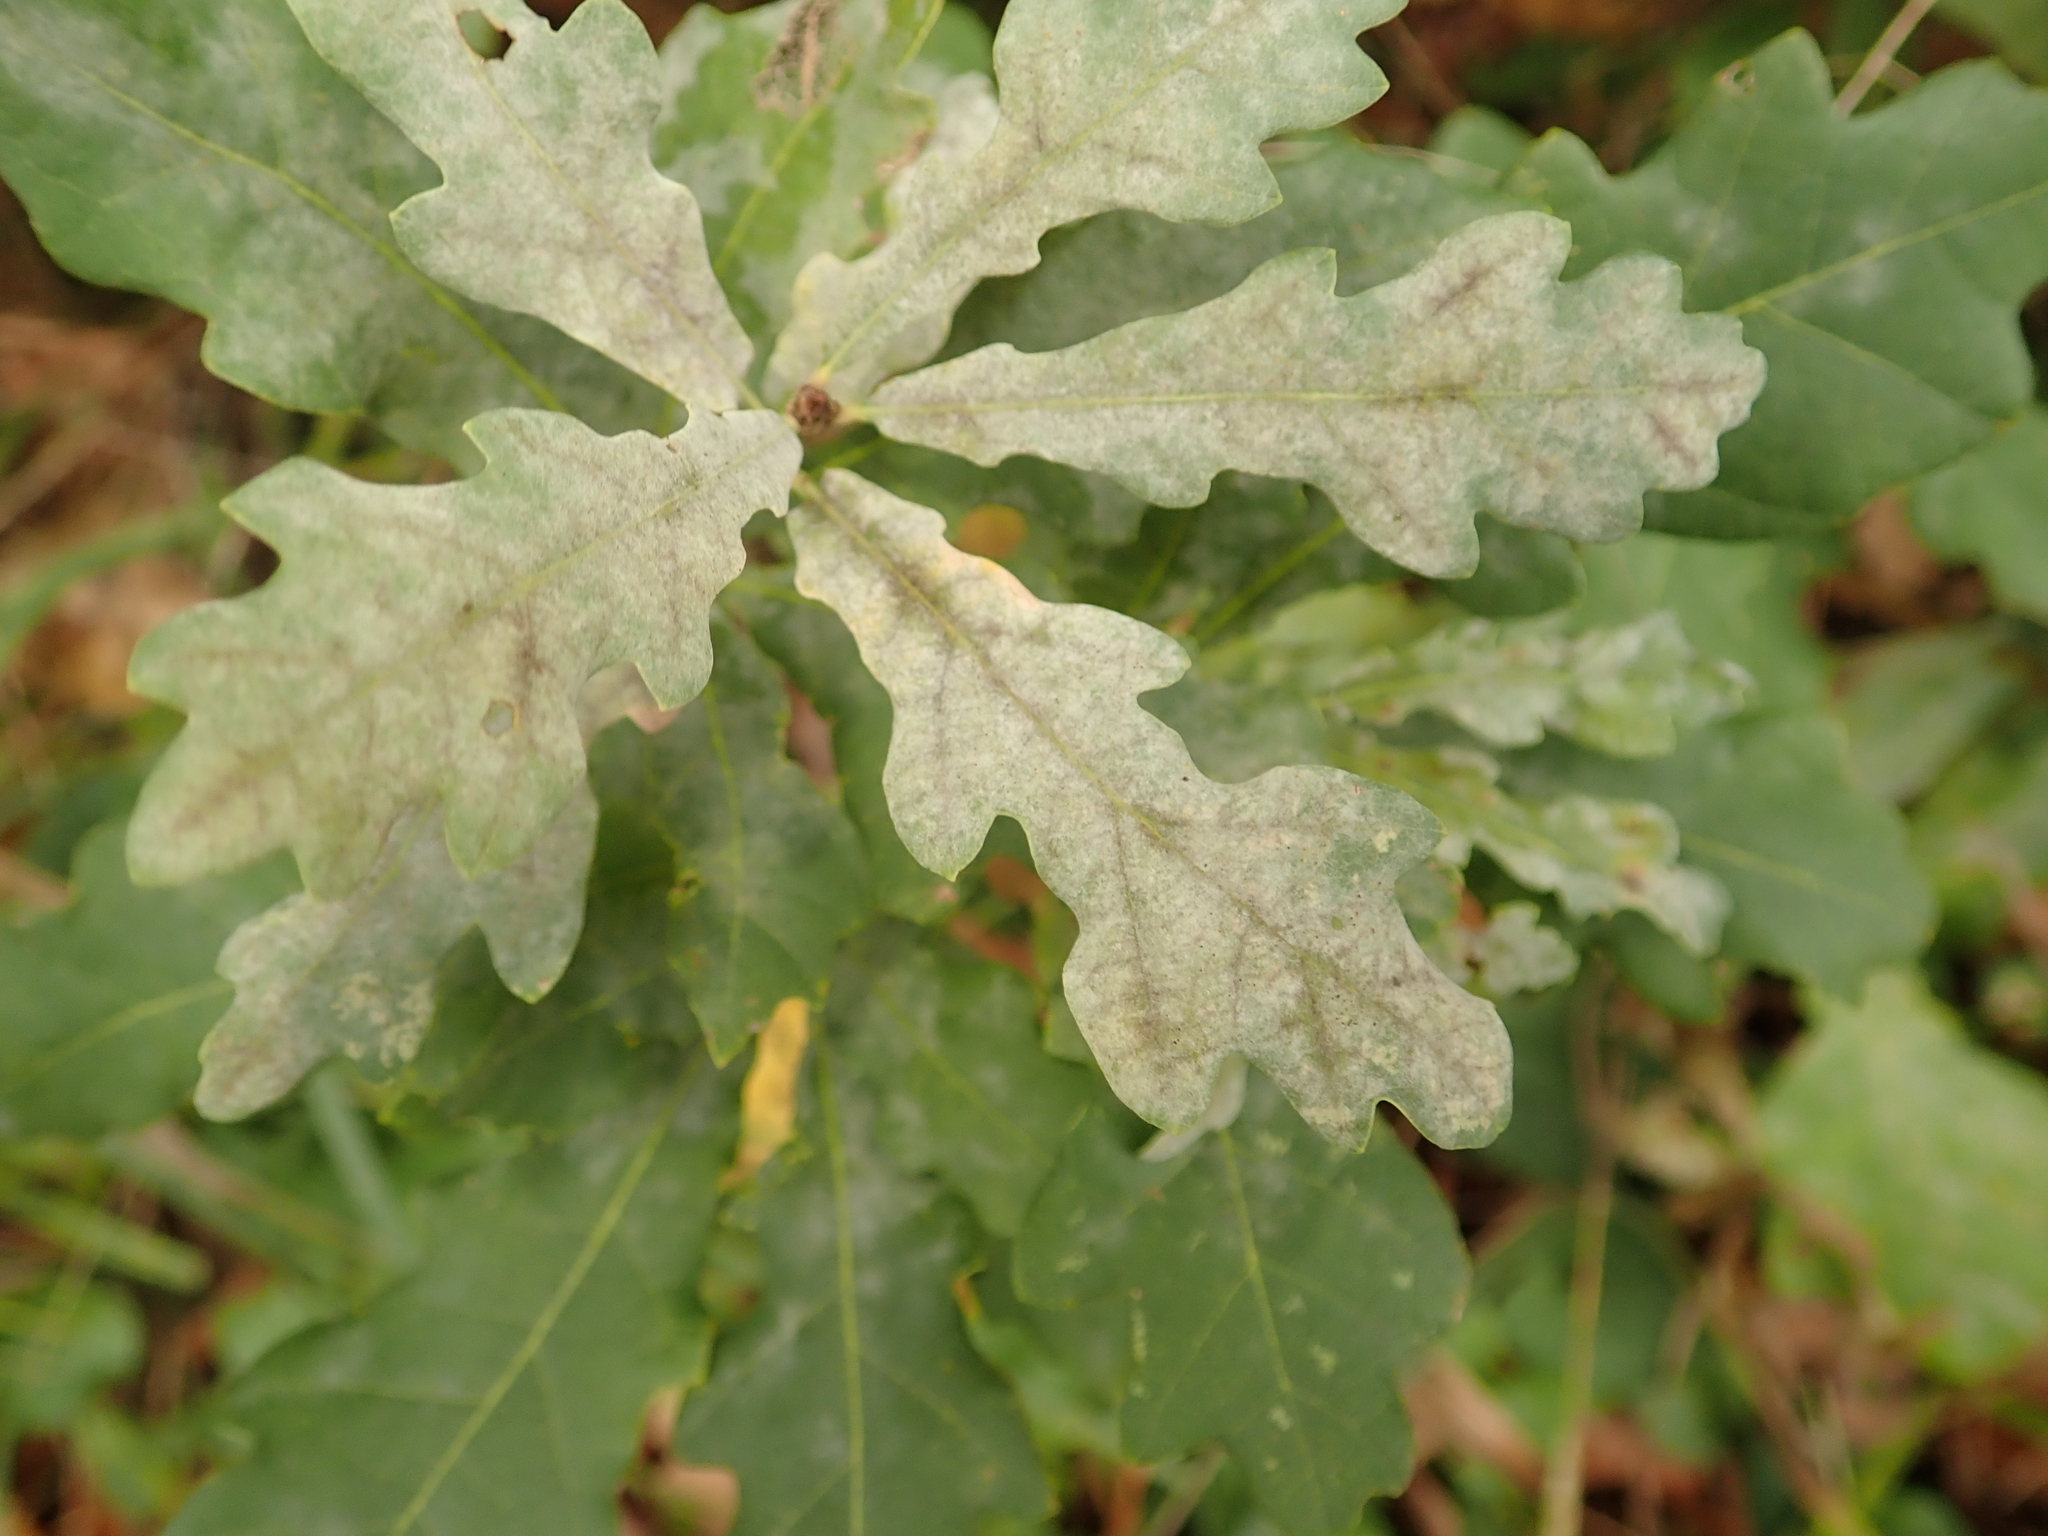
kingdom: Fungi
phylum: Ascomycota
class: Leotiomycetes
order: Helotiales
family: Erysiphaceae
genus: Erysiphe
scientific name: Erysiphe
